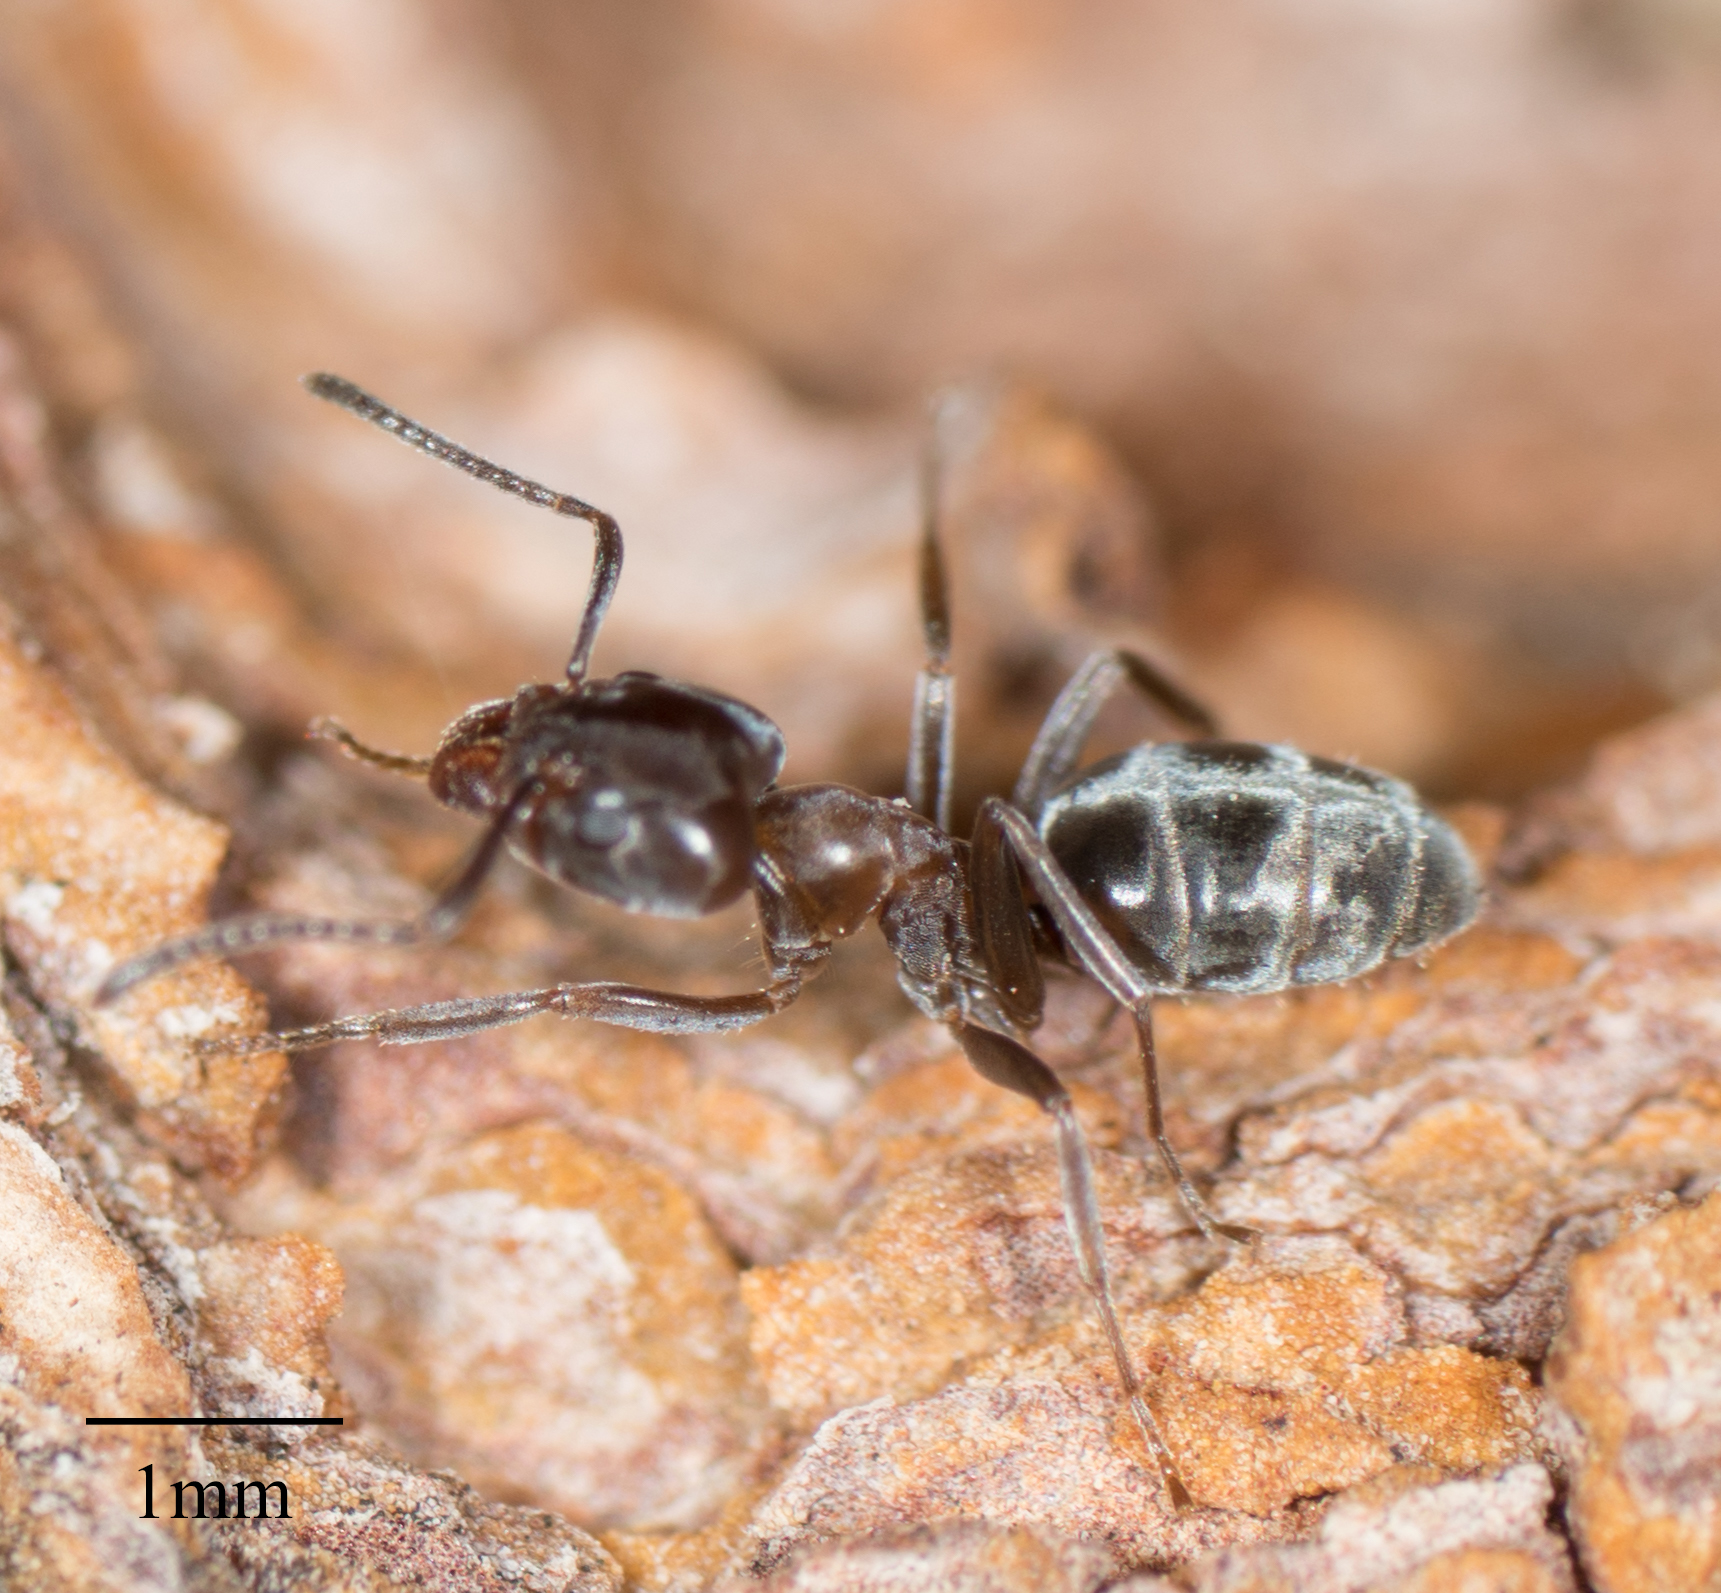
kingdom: Animalia
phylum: Arthropoda
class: Insecta
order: Hymenoptera
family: Formicidae
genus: Liometopum
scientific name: Liometopum luctuosum
